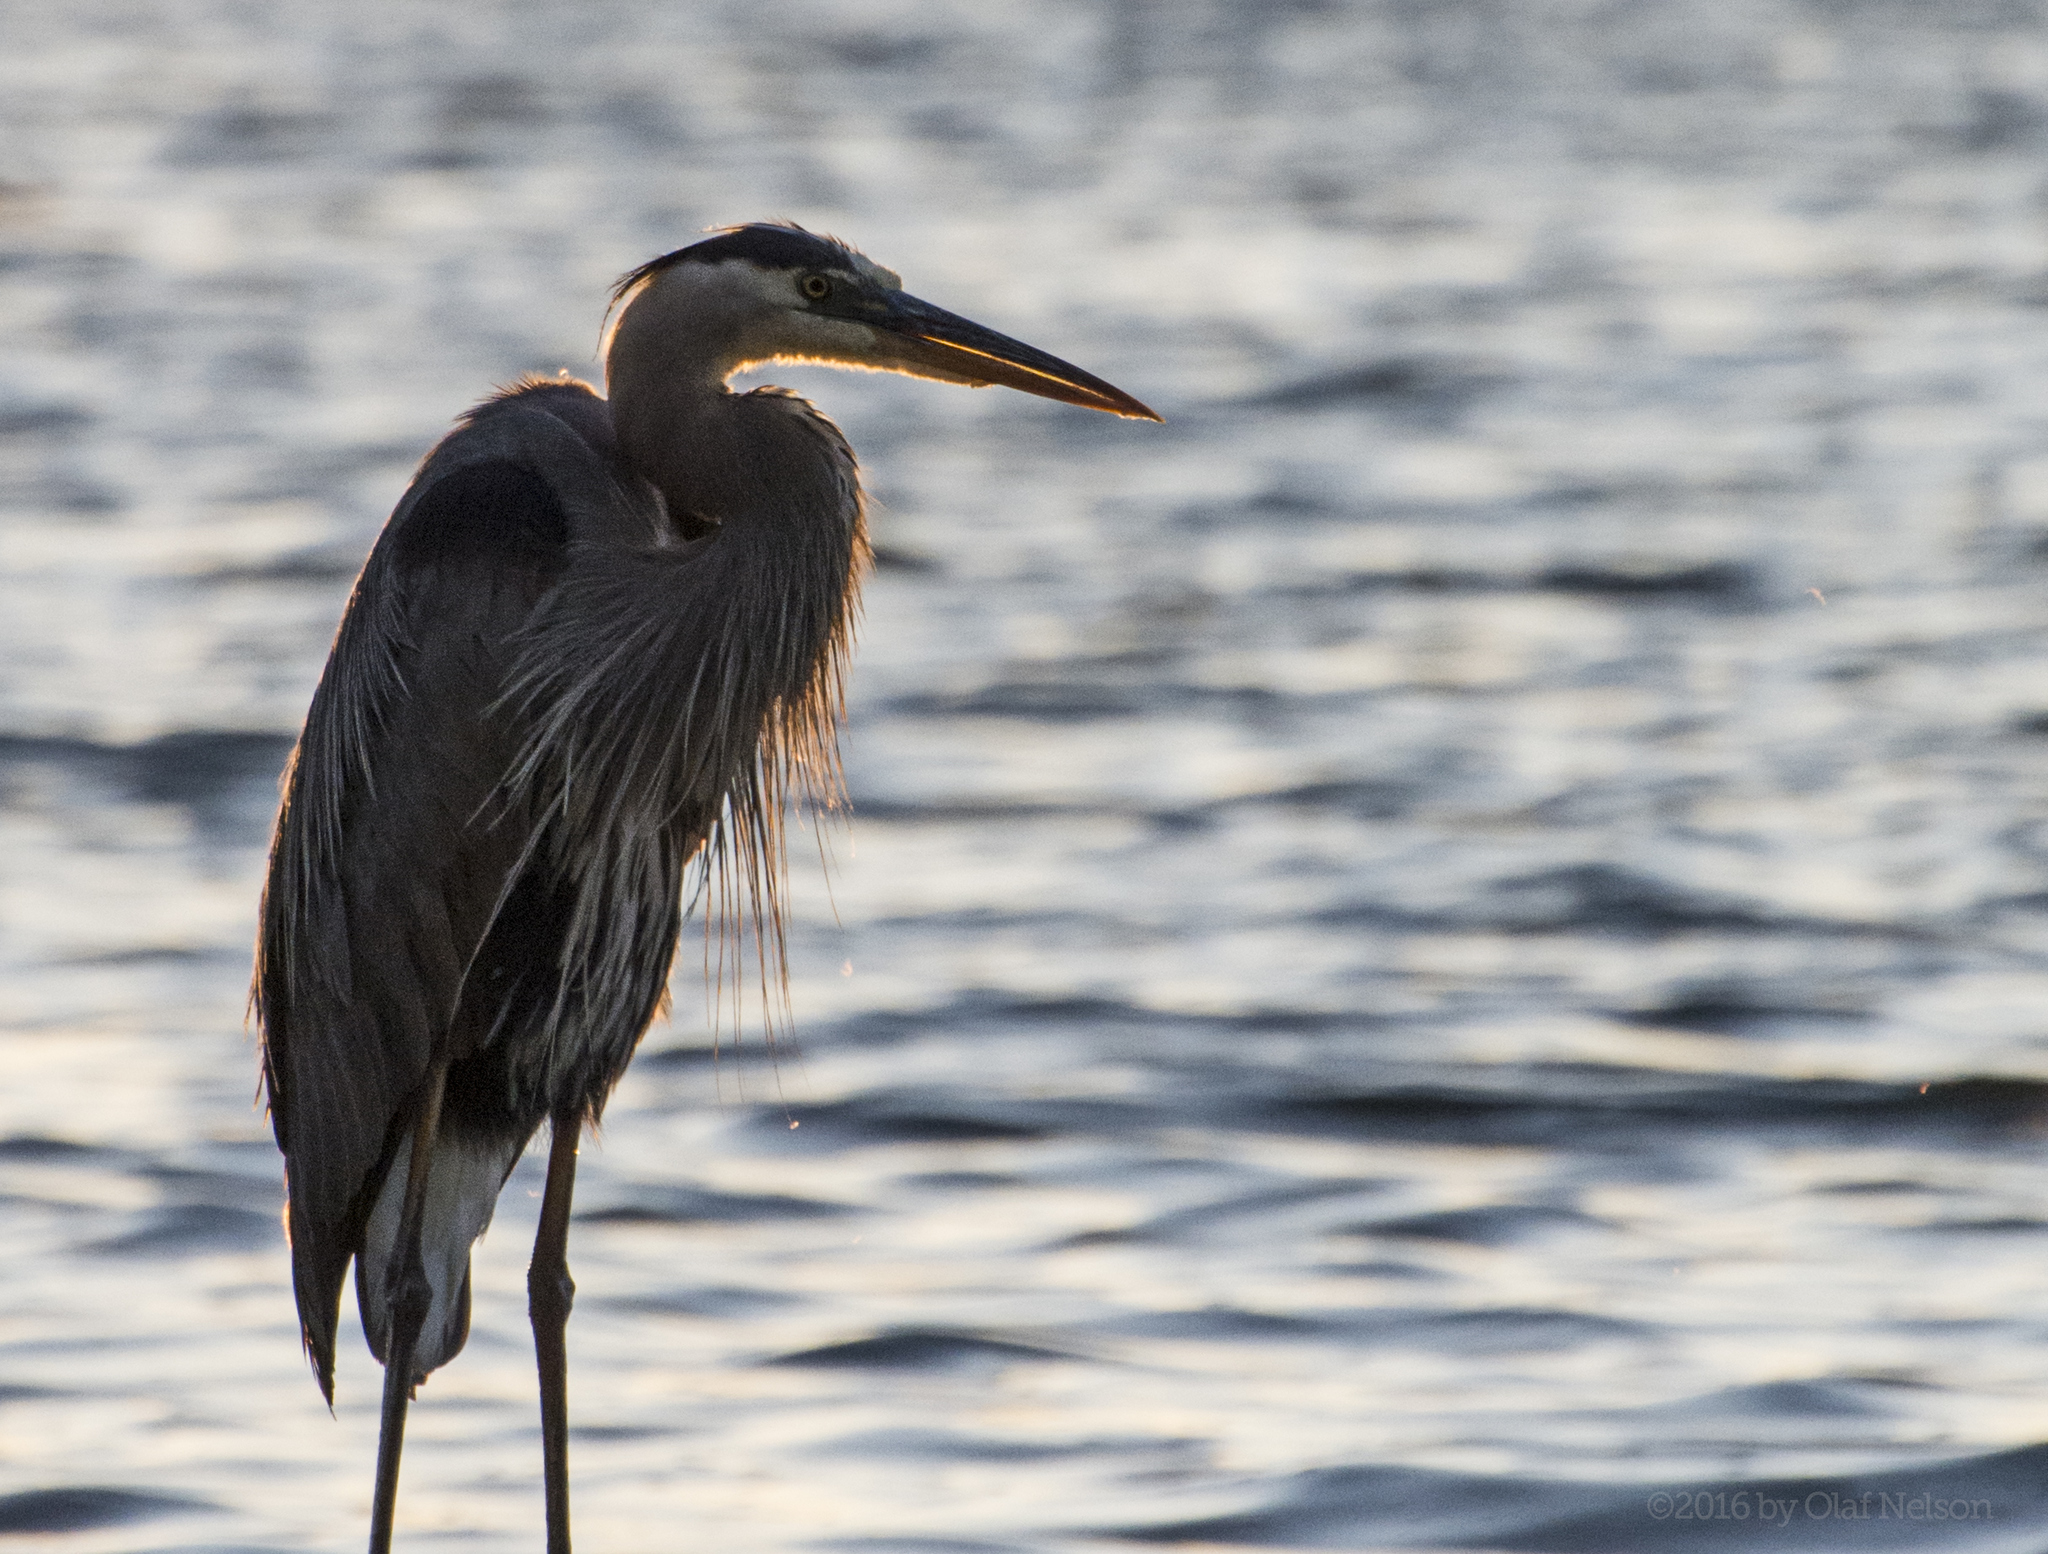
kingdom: Animalia
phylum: Chordata
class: Aves
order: Pelecaniformes
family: Ardeidae
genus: Ardea
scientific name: Ardea herodias
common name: Great blue heron
